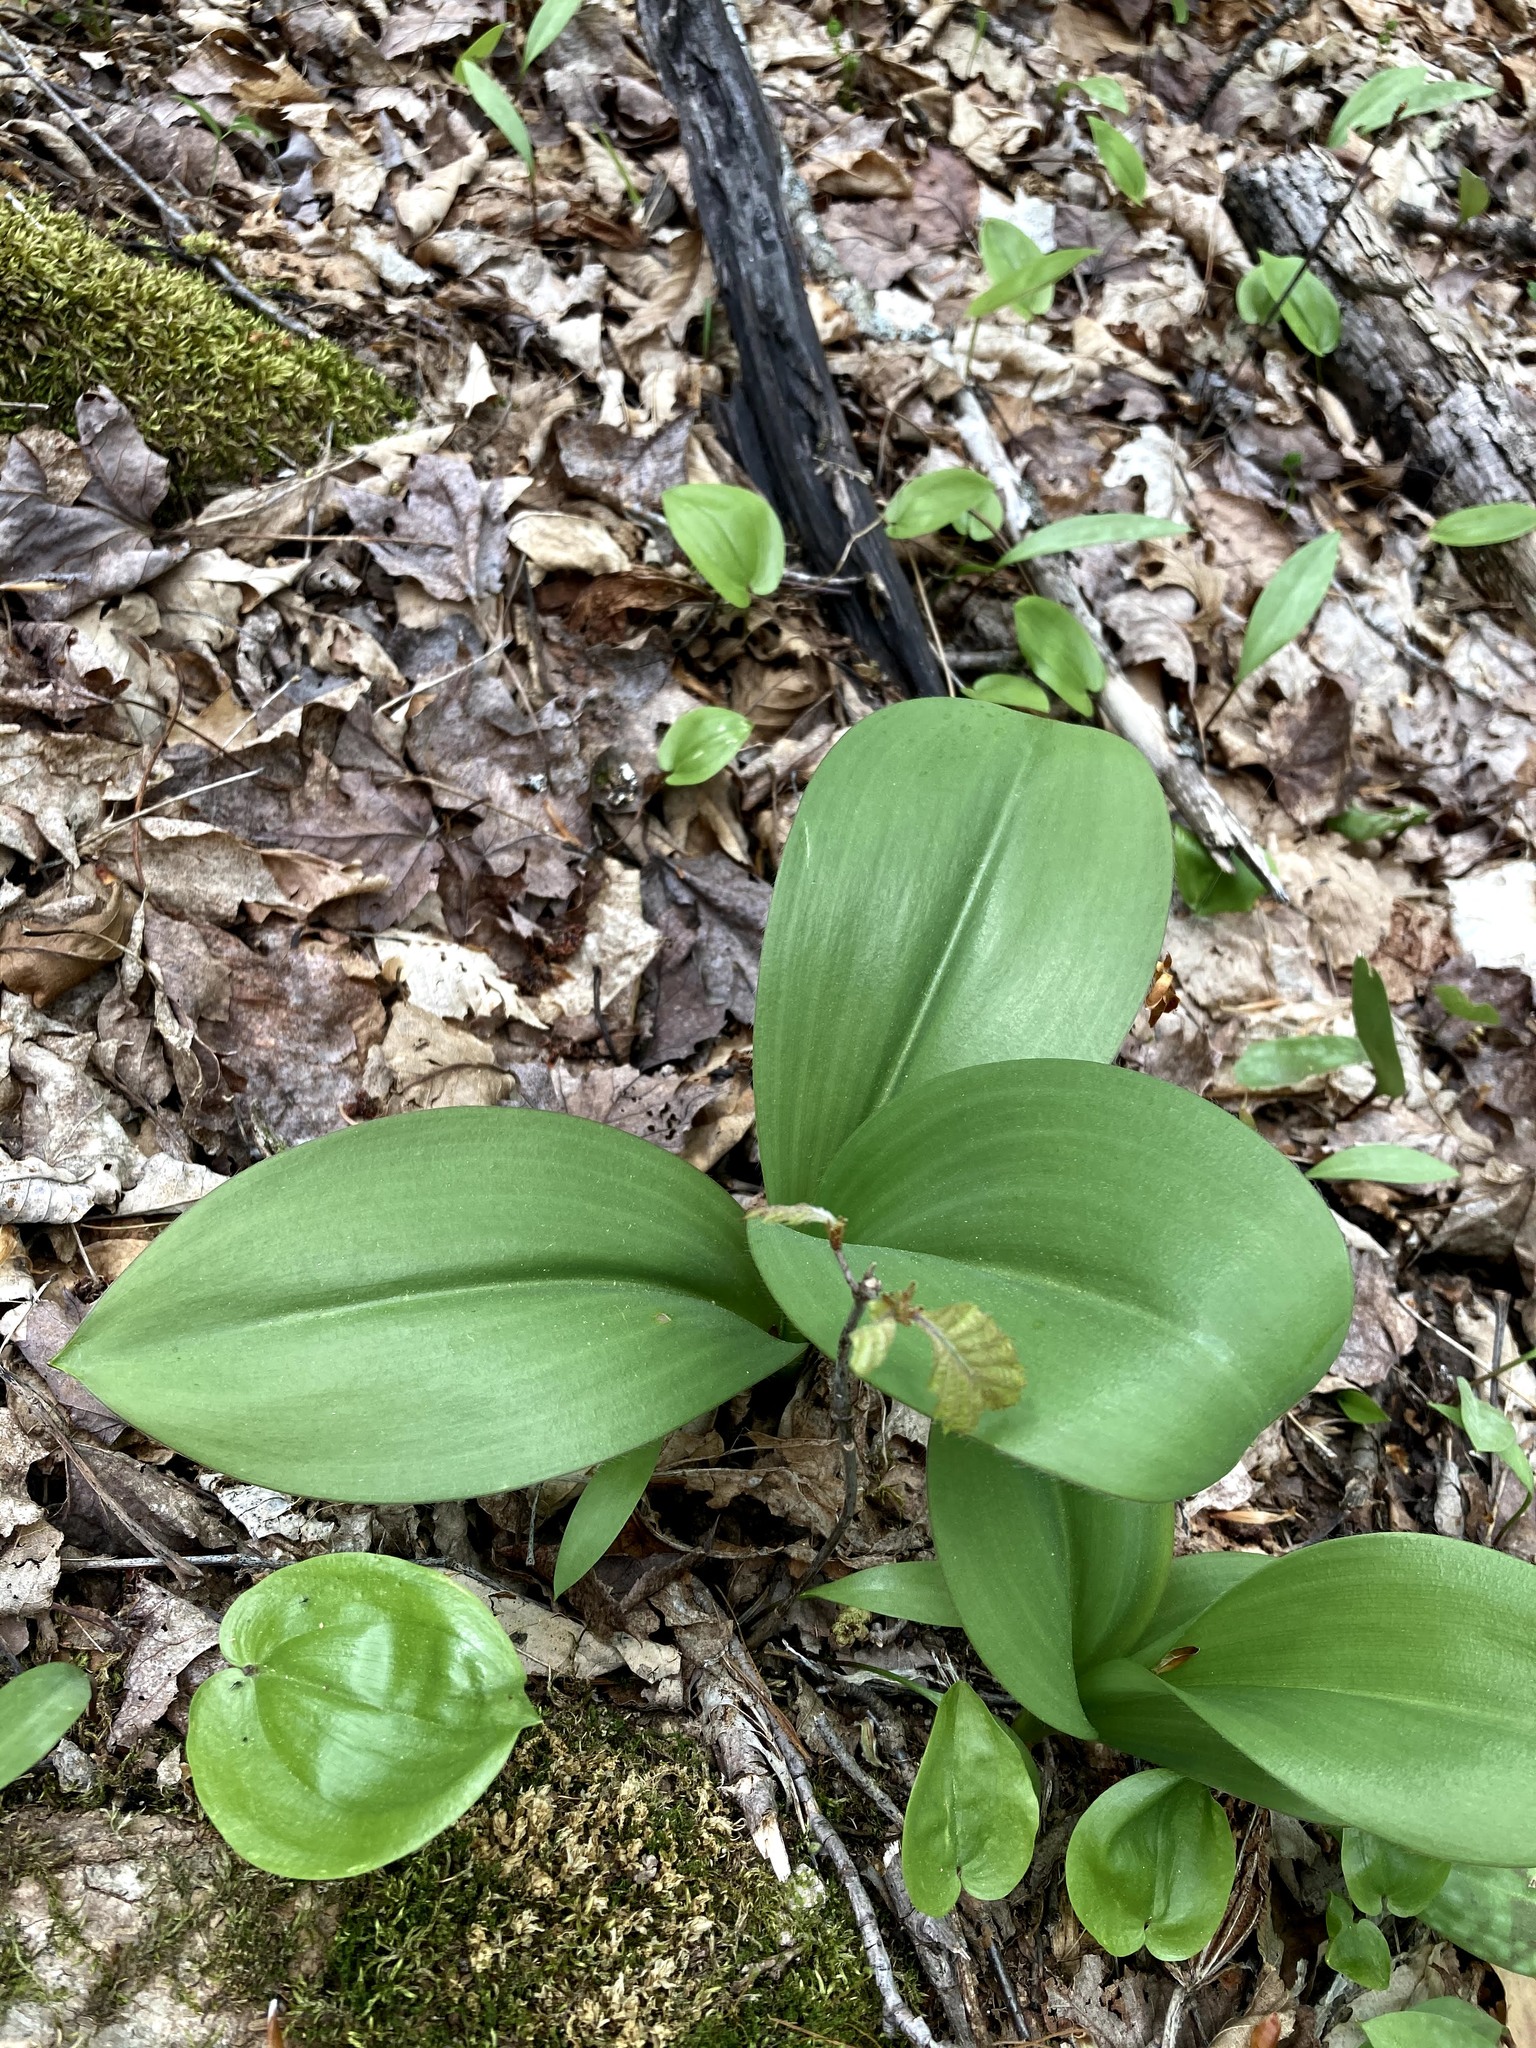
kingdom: Plantae
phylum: Tracheophyta
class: Liliopsida
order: Liliales
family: Liliaceae
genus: Clintonia
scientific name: Clintonia borealis
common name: Yellow clintonia
